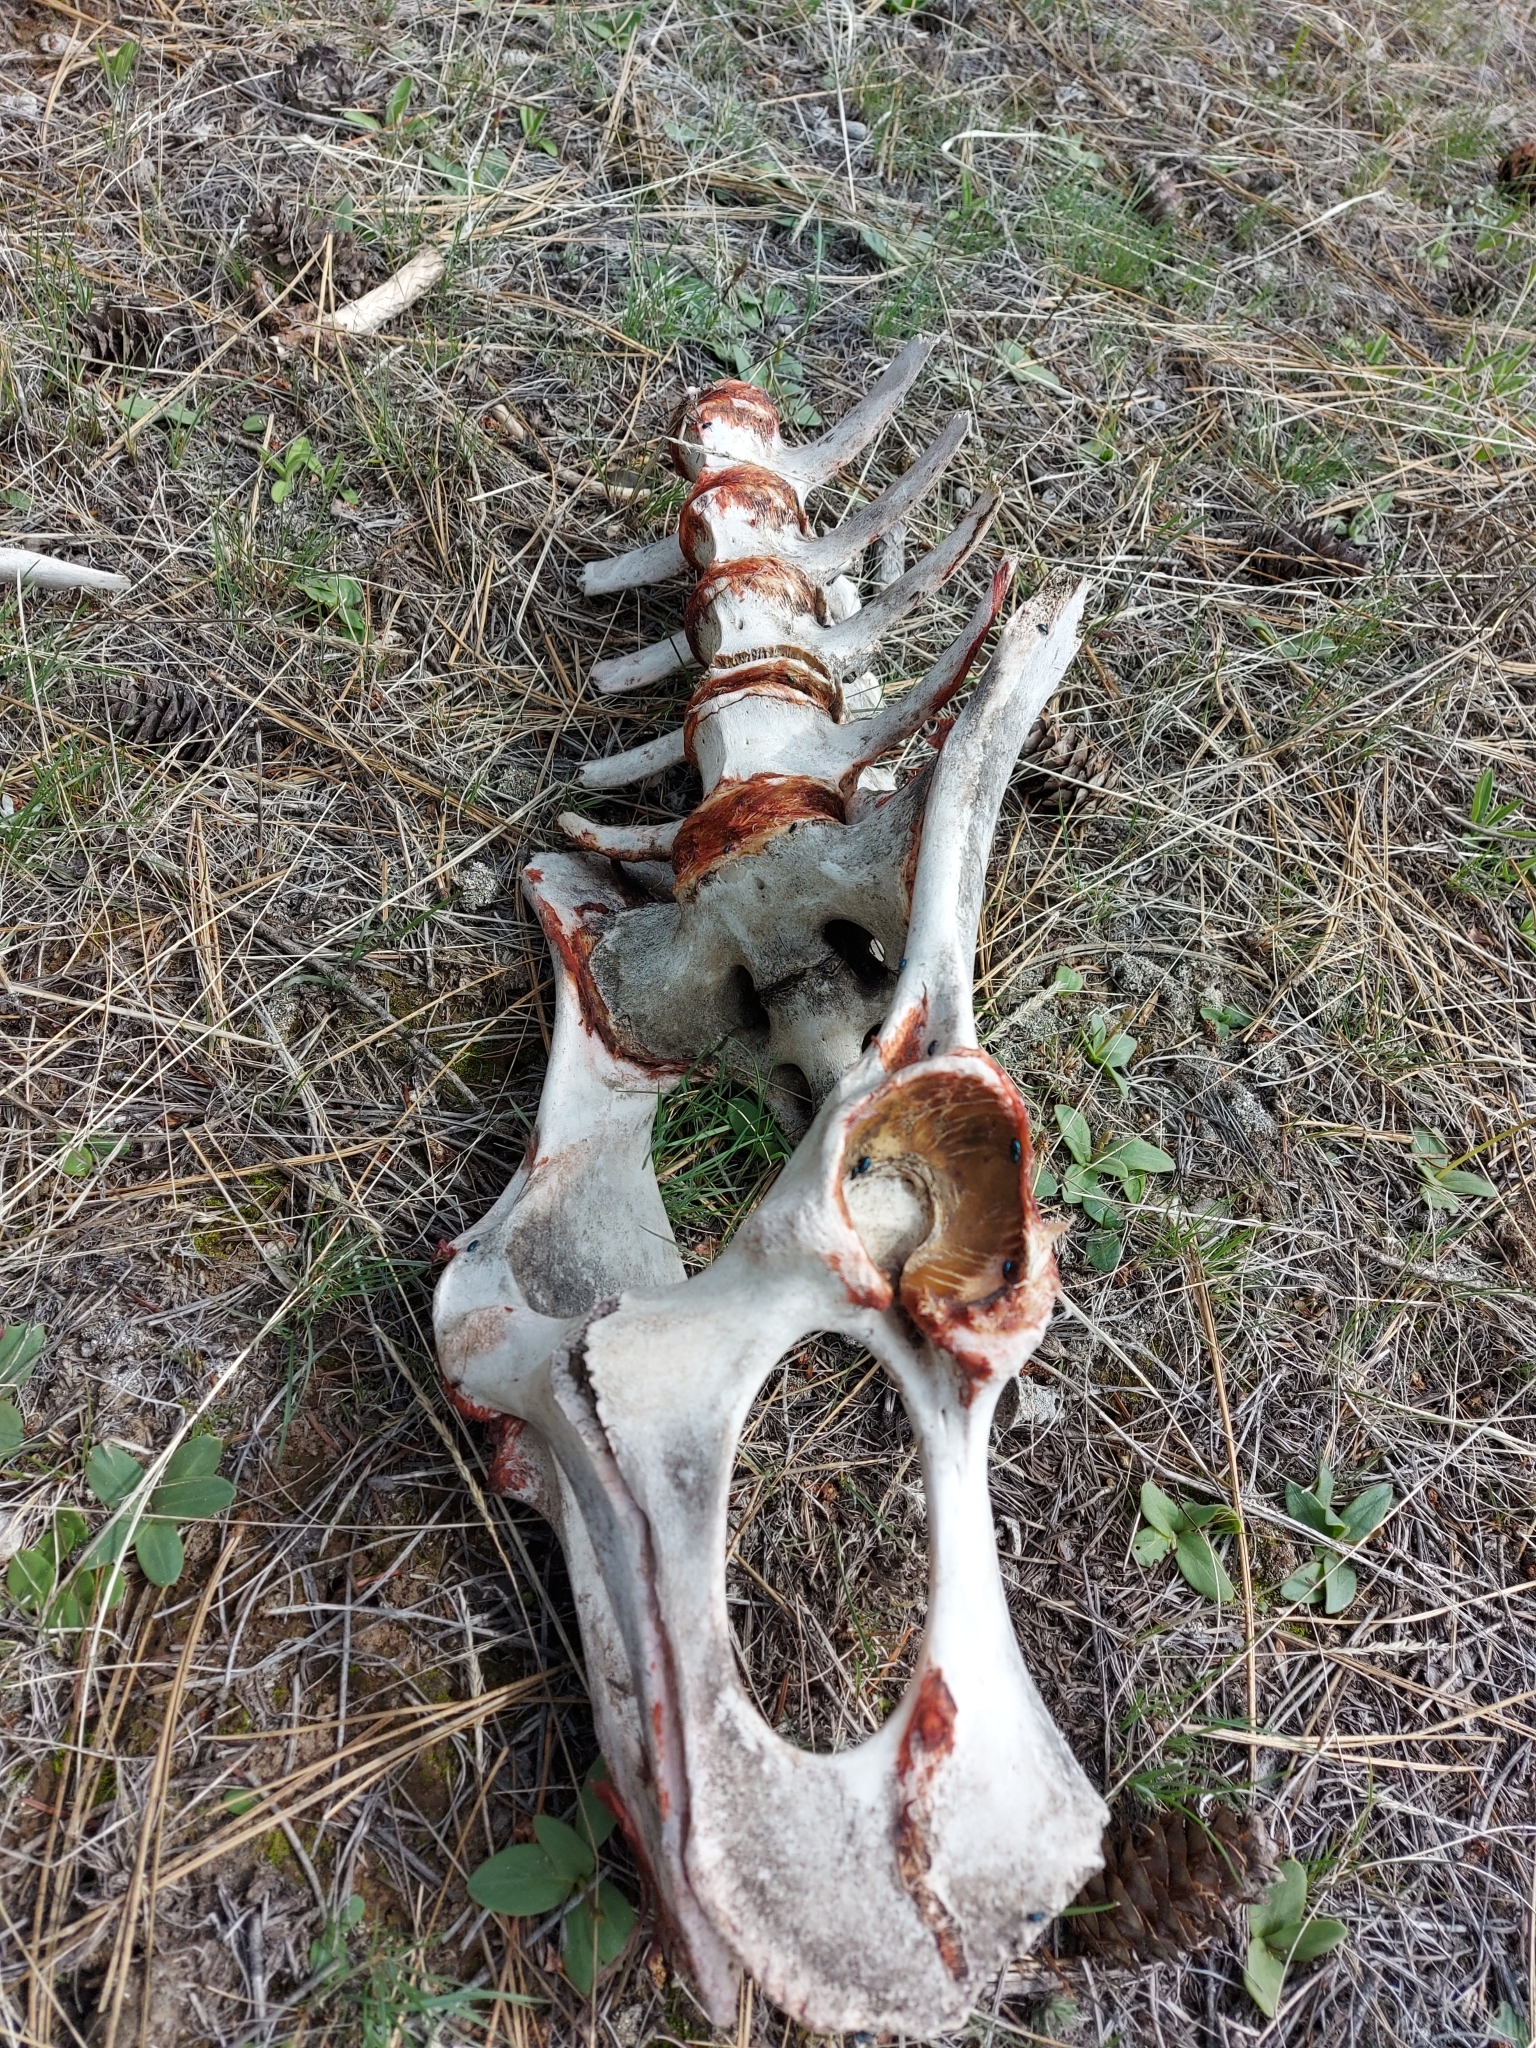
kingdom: Animalia
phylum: Chordata
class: Mammalia
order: Artiodactyla
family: Cervidae
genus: Cervus
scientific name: Cervus elaphus
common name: Red deer
